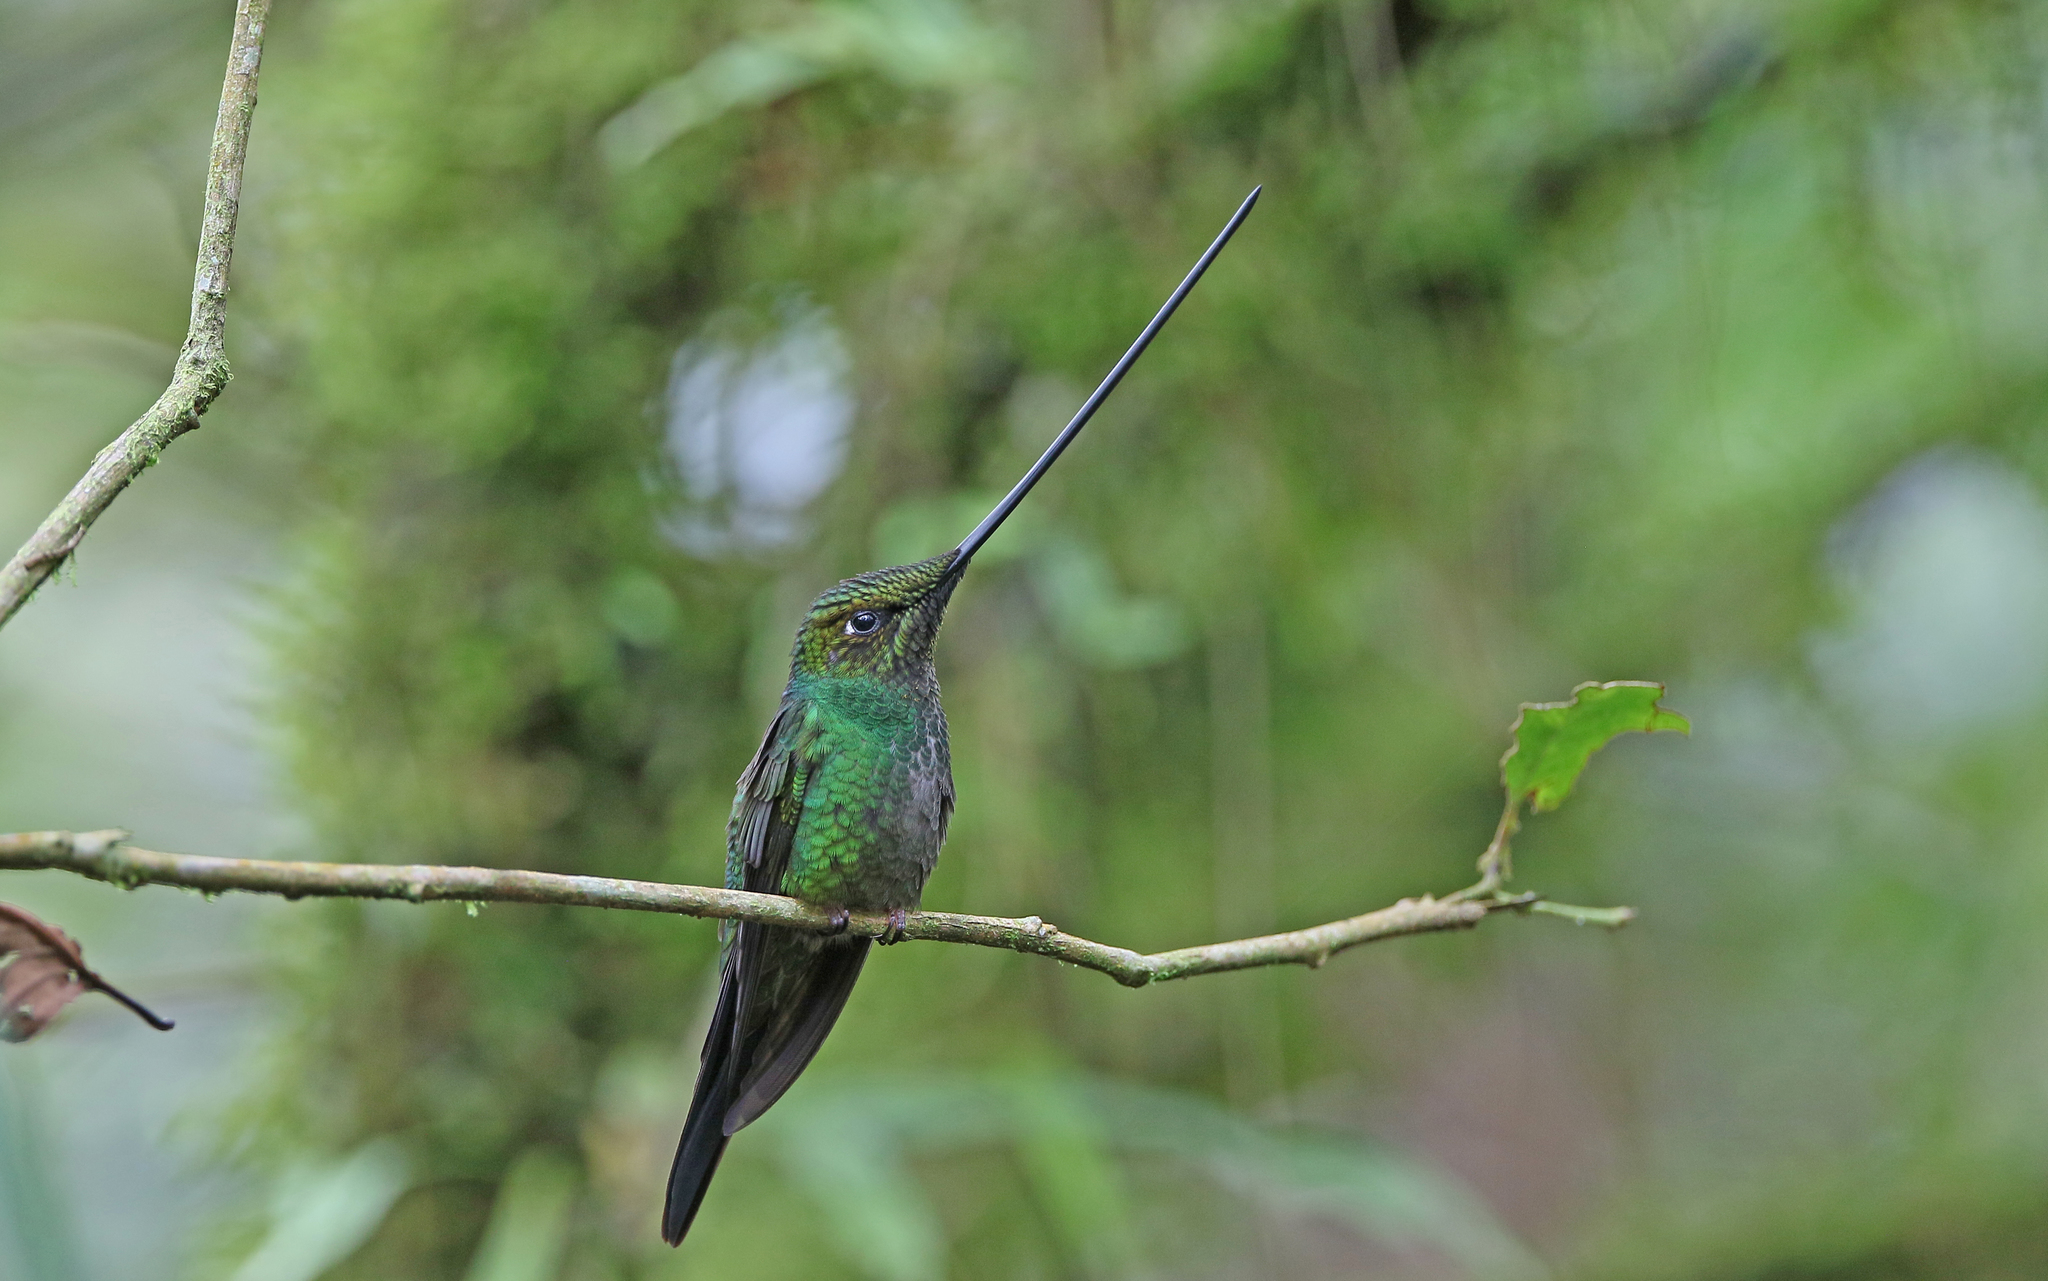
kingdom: Animalia
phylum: Chordata
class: Aves
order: Apodiformes
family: Trochilidae
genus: Ensifera
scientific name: Ensifera ensifera
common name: Sword-billed hummingbird
